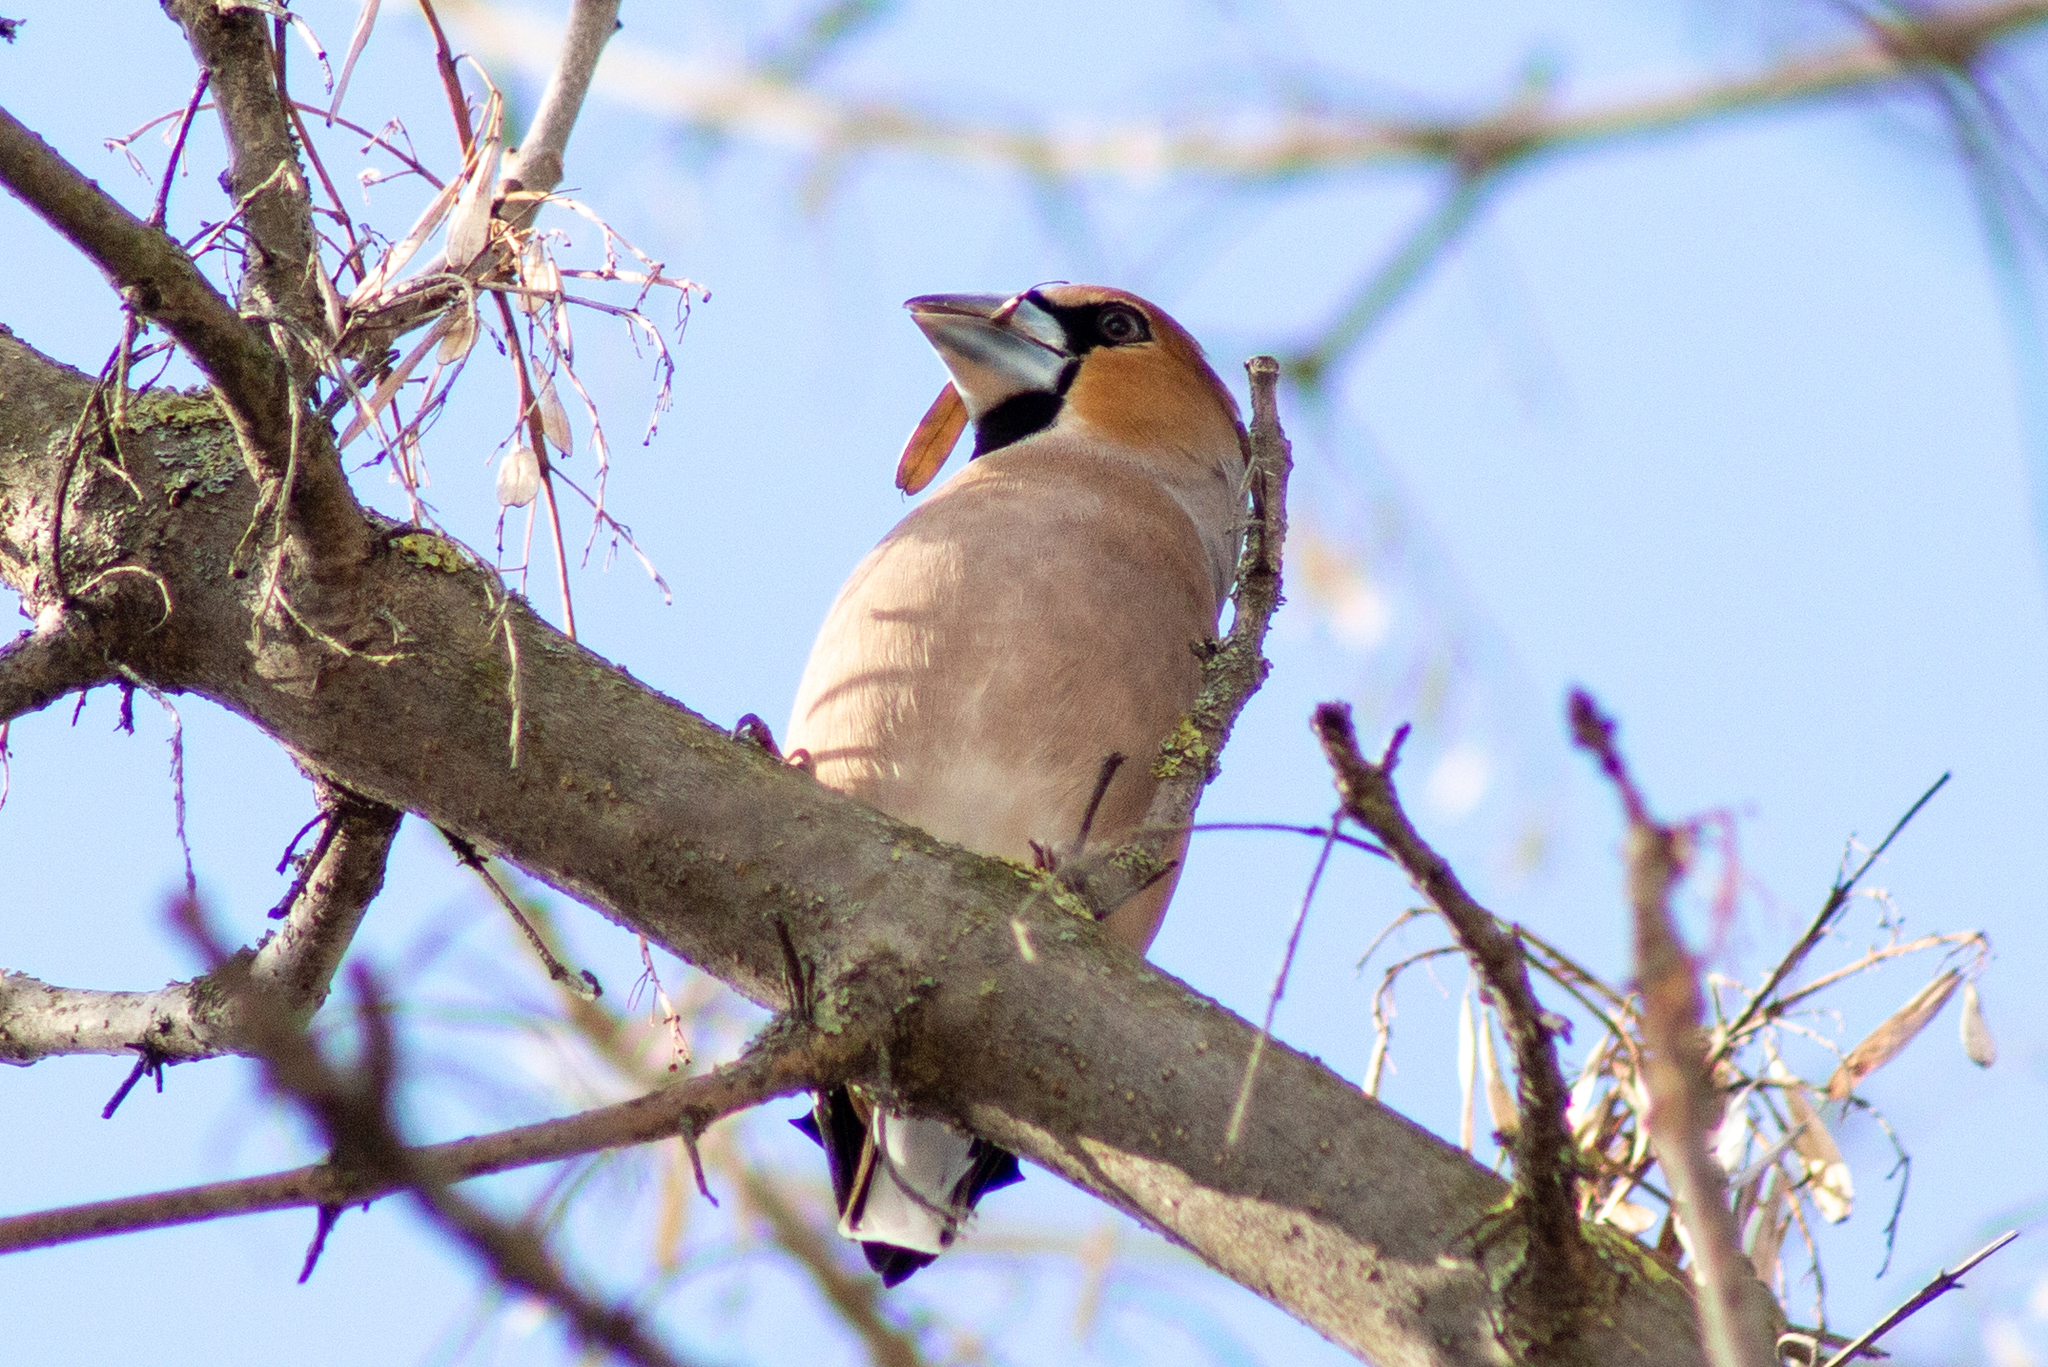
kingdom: Animalia
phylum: Chordata
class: Aves
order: Passeriformes
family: Fringillidae
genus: Coccothraustes
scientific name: Coccothraustes coccothraustes
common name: Hawfinch
